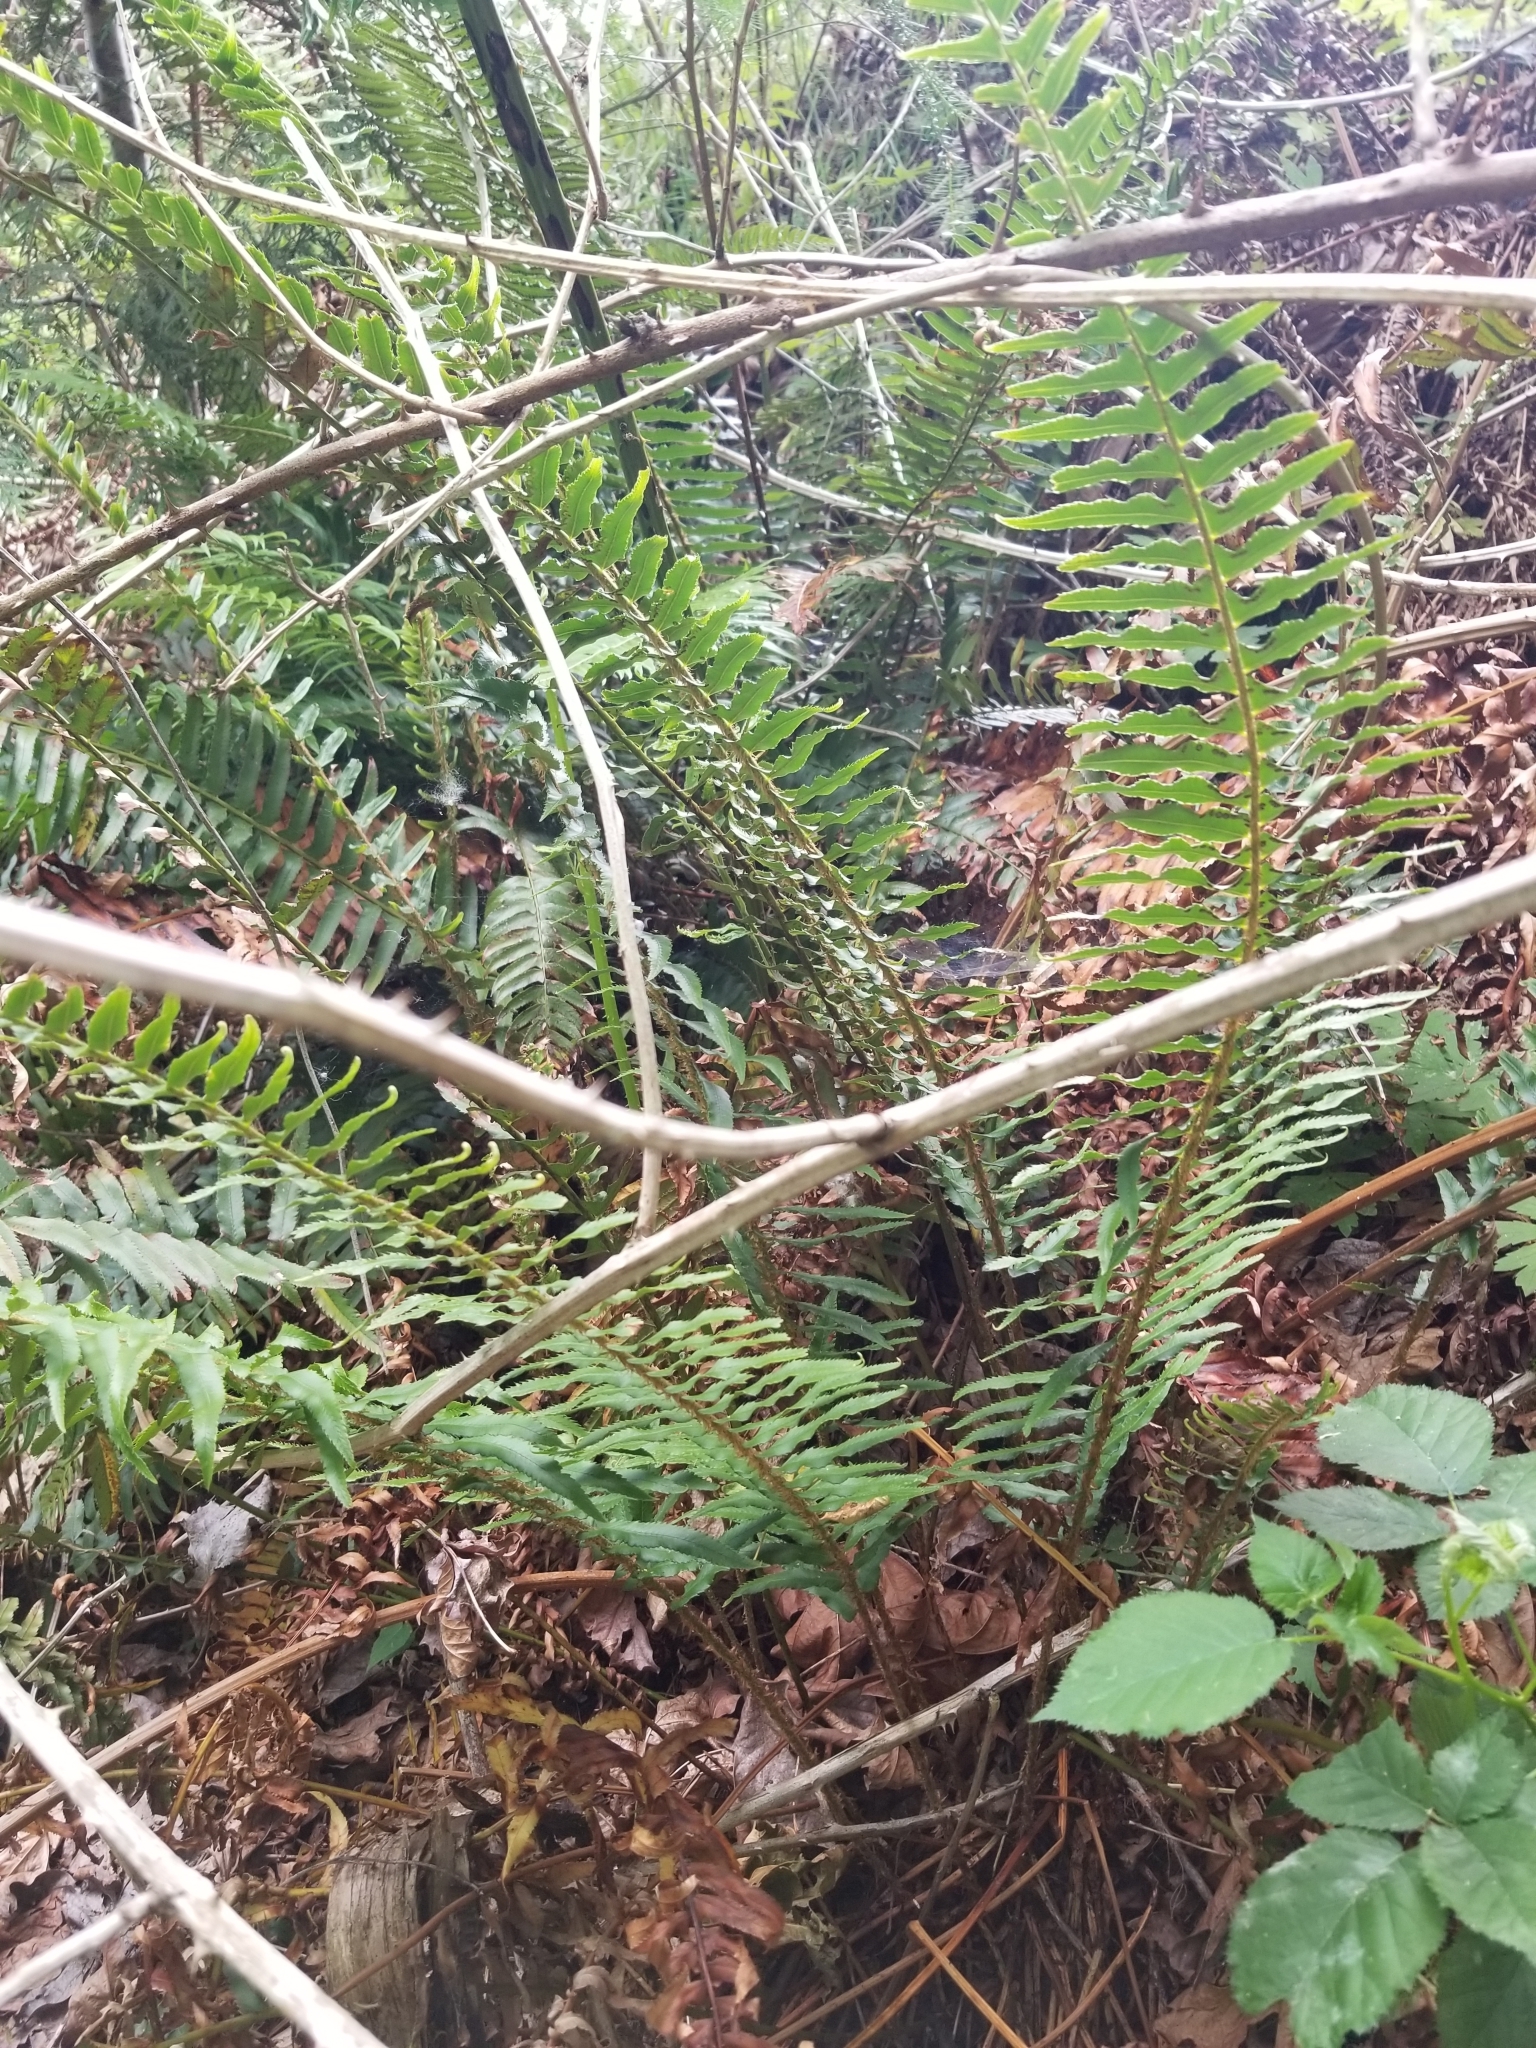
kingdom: Plantae
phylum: Tracheophyta
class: Polypodiopsida
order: Polypodiales
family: Dryopteridaceae
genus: Polystichum
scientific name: Polystichum munitum
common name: Western sword-fern
